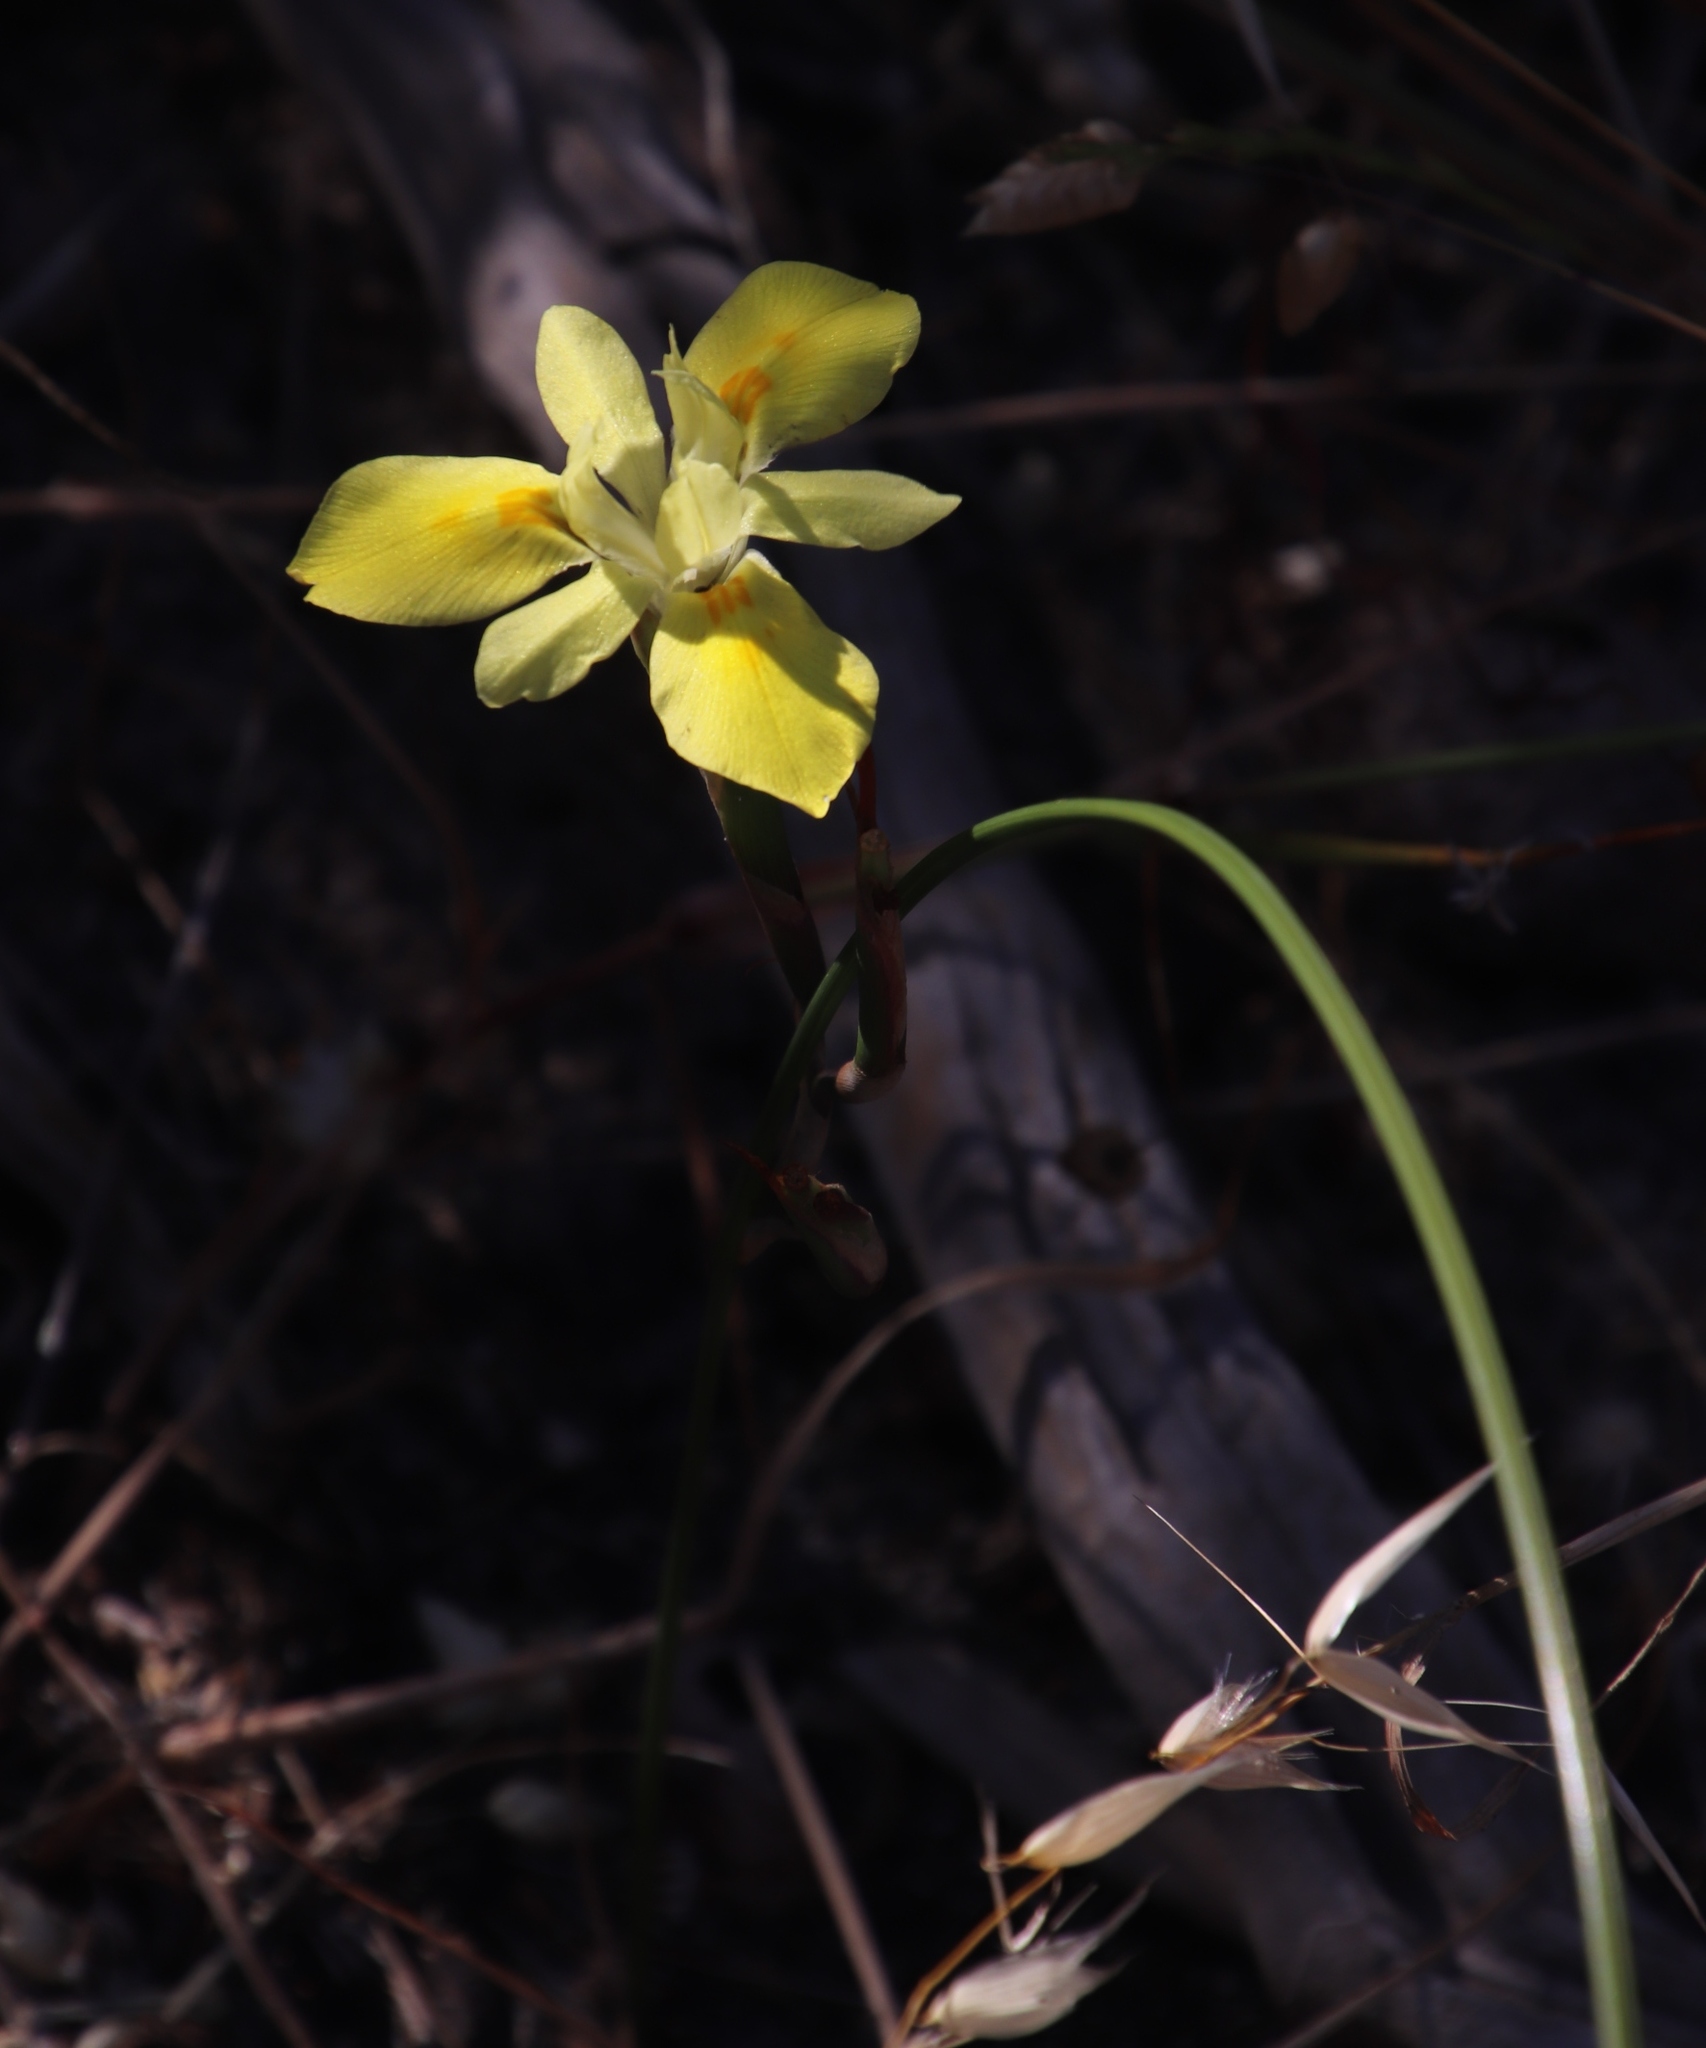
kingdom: Plantae
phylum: Tracheophyta
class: Liliopsida
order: Asparagales
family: Iridaceae
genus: Moraea
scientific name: Moraea fugax
